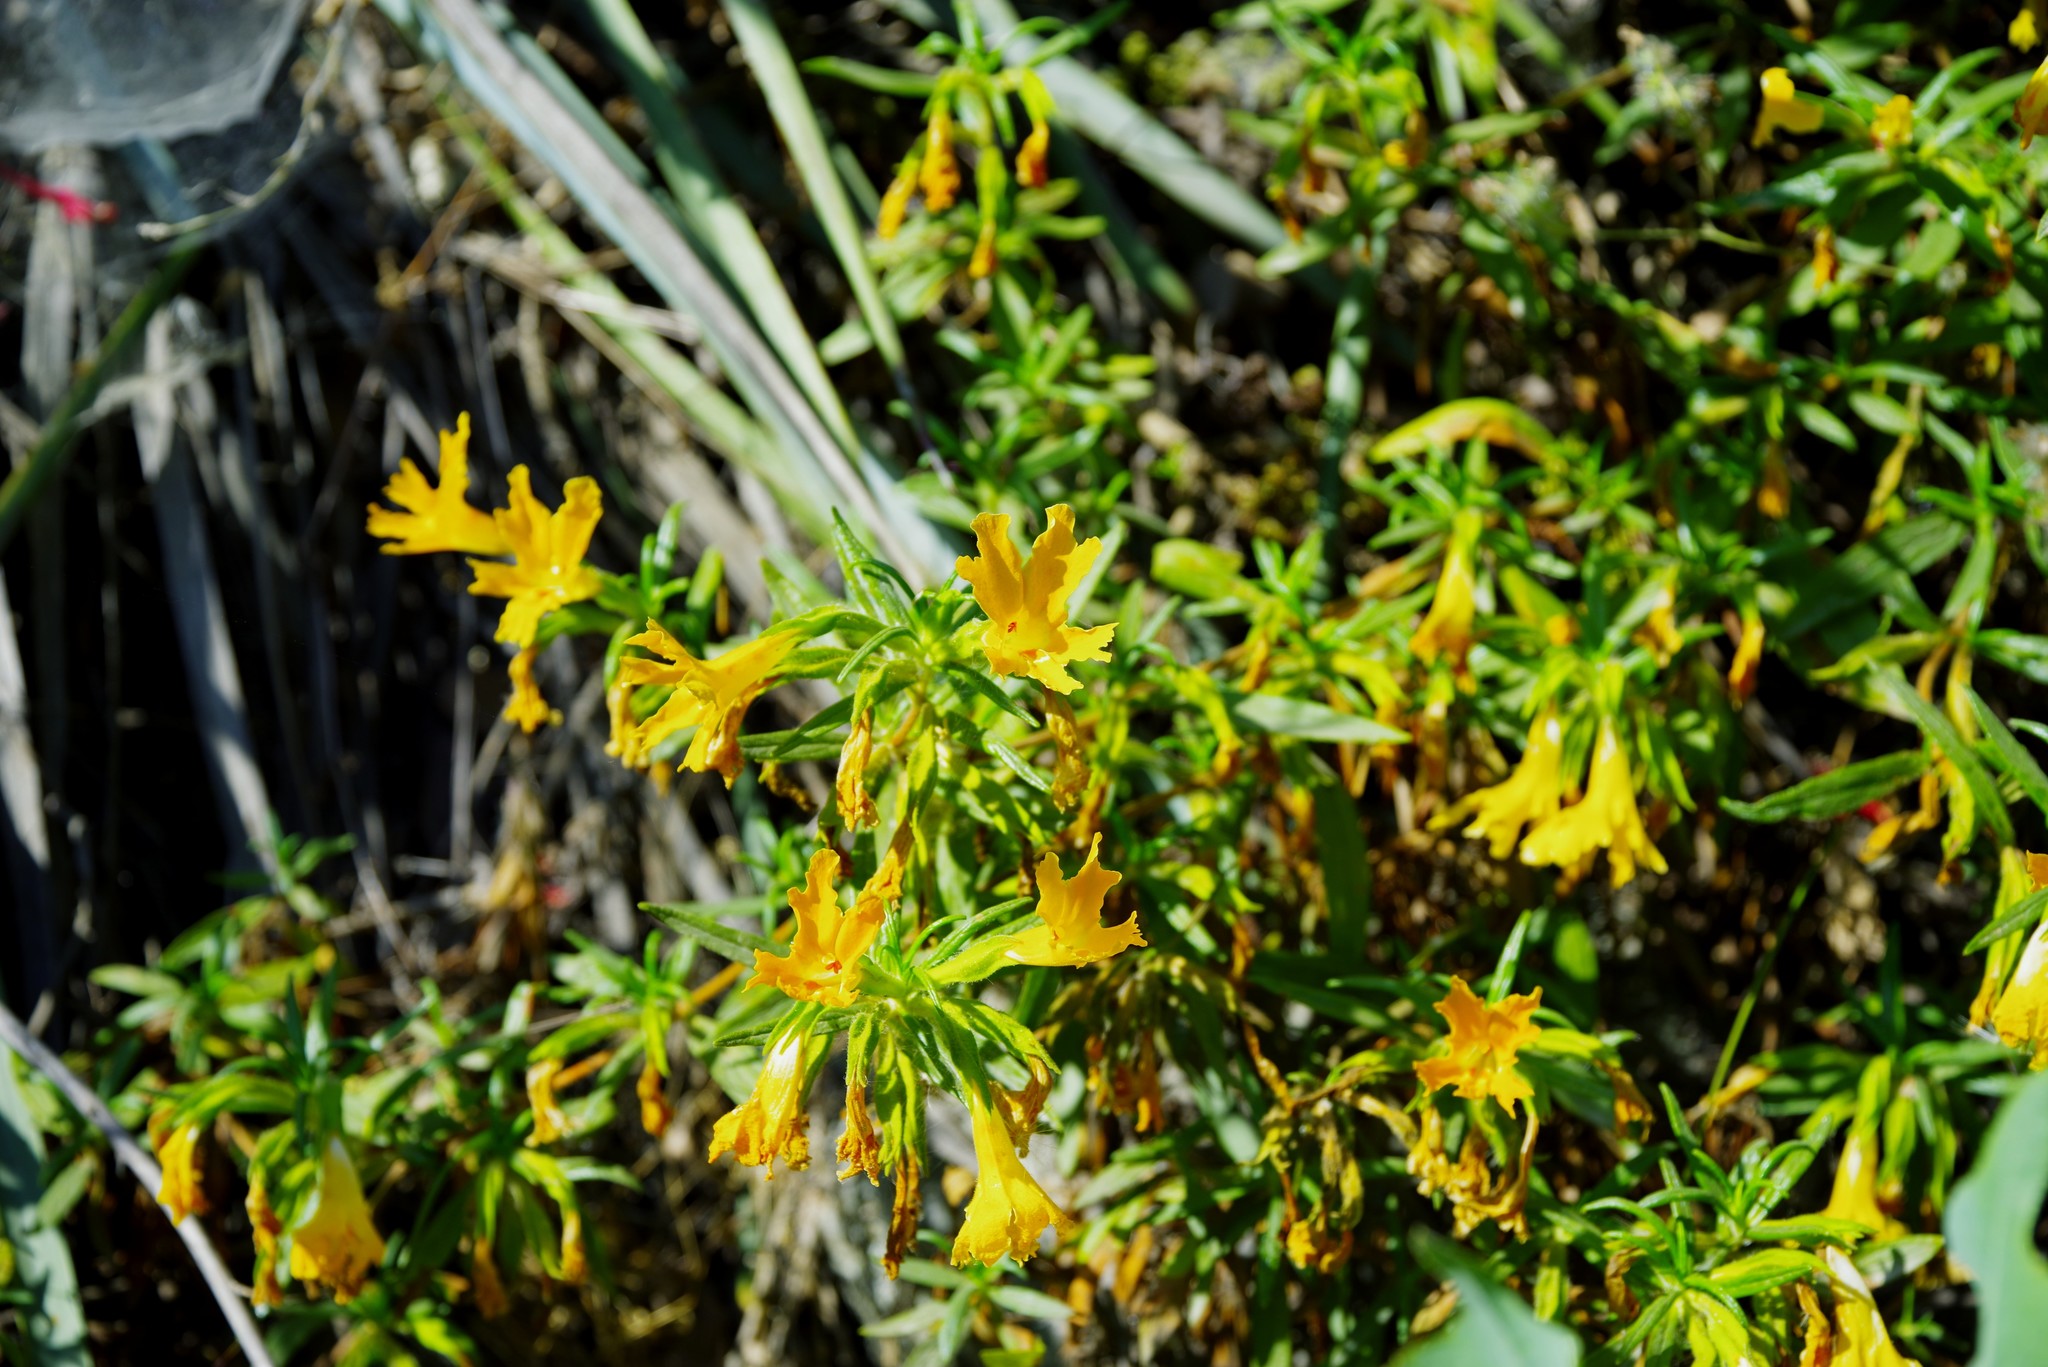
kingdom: Plantae
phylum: Tracheophyta
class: Magnoliopsida
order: Lamiales
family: Phrymaceae
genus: Diplacus
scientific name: Diplacus longiflorus
